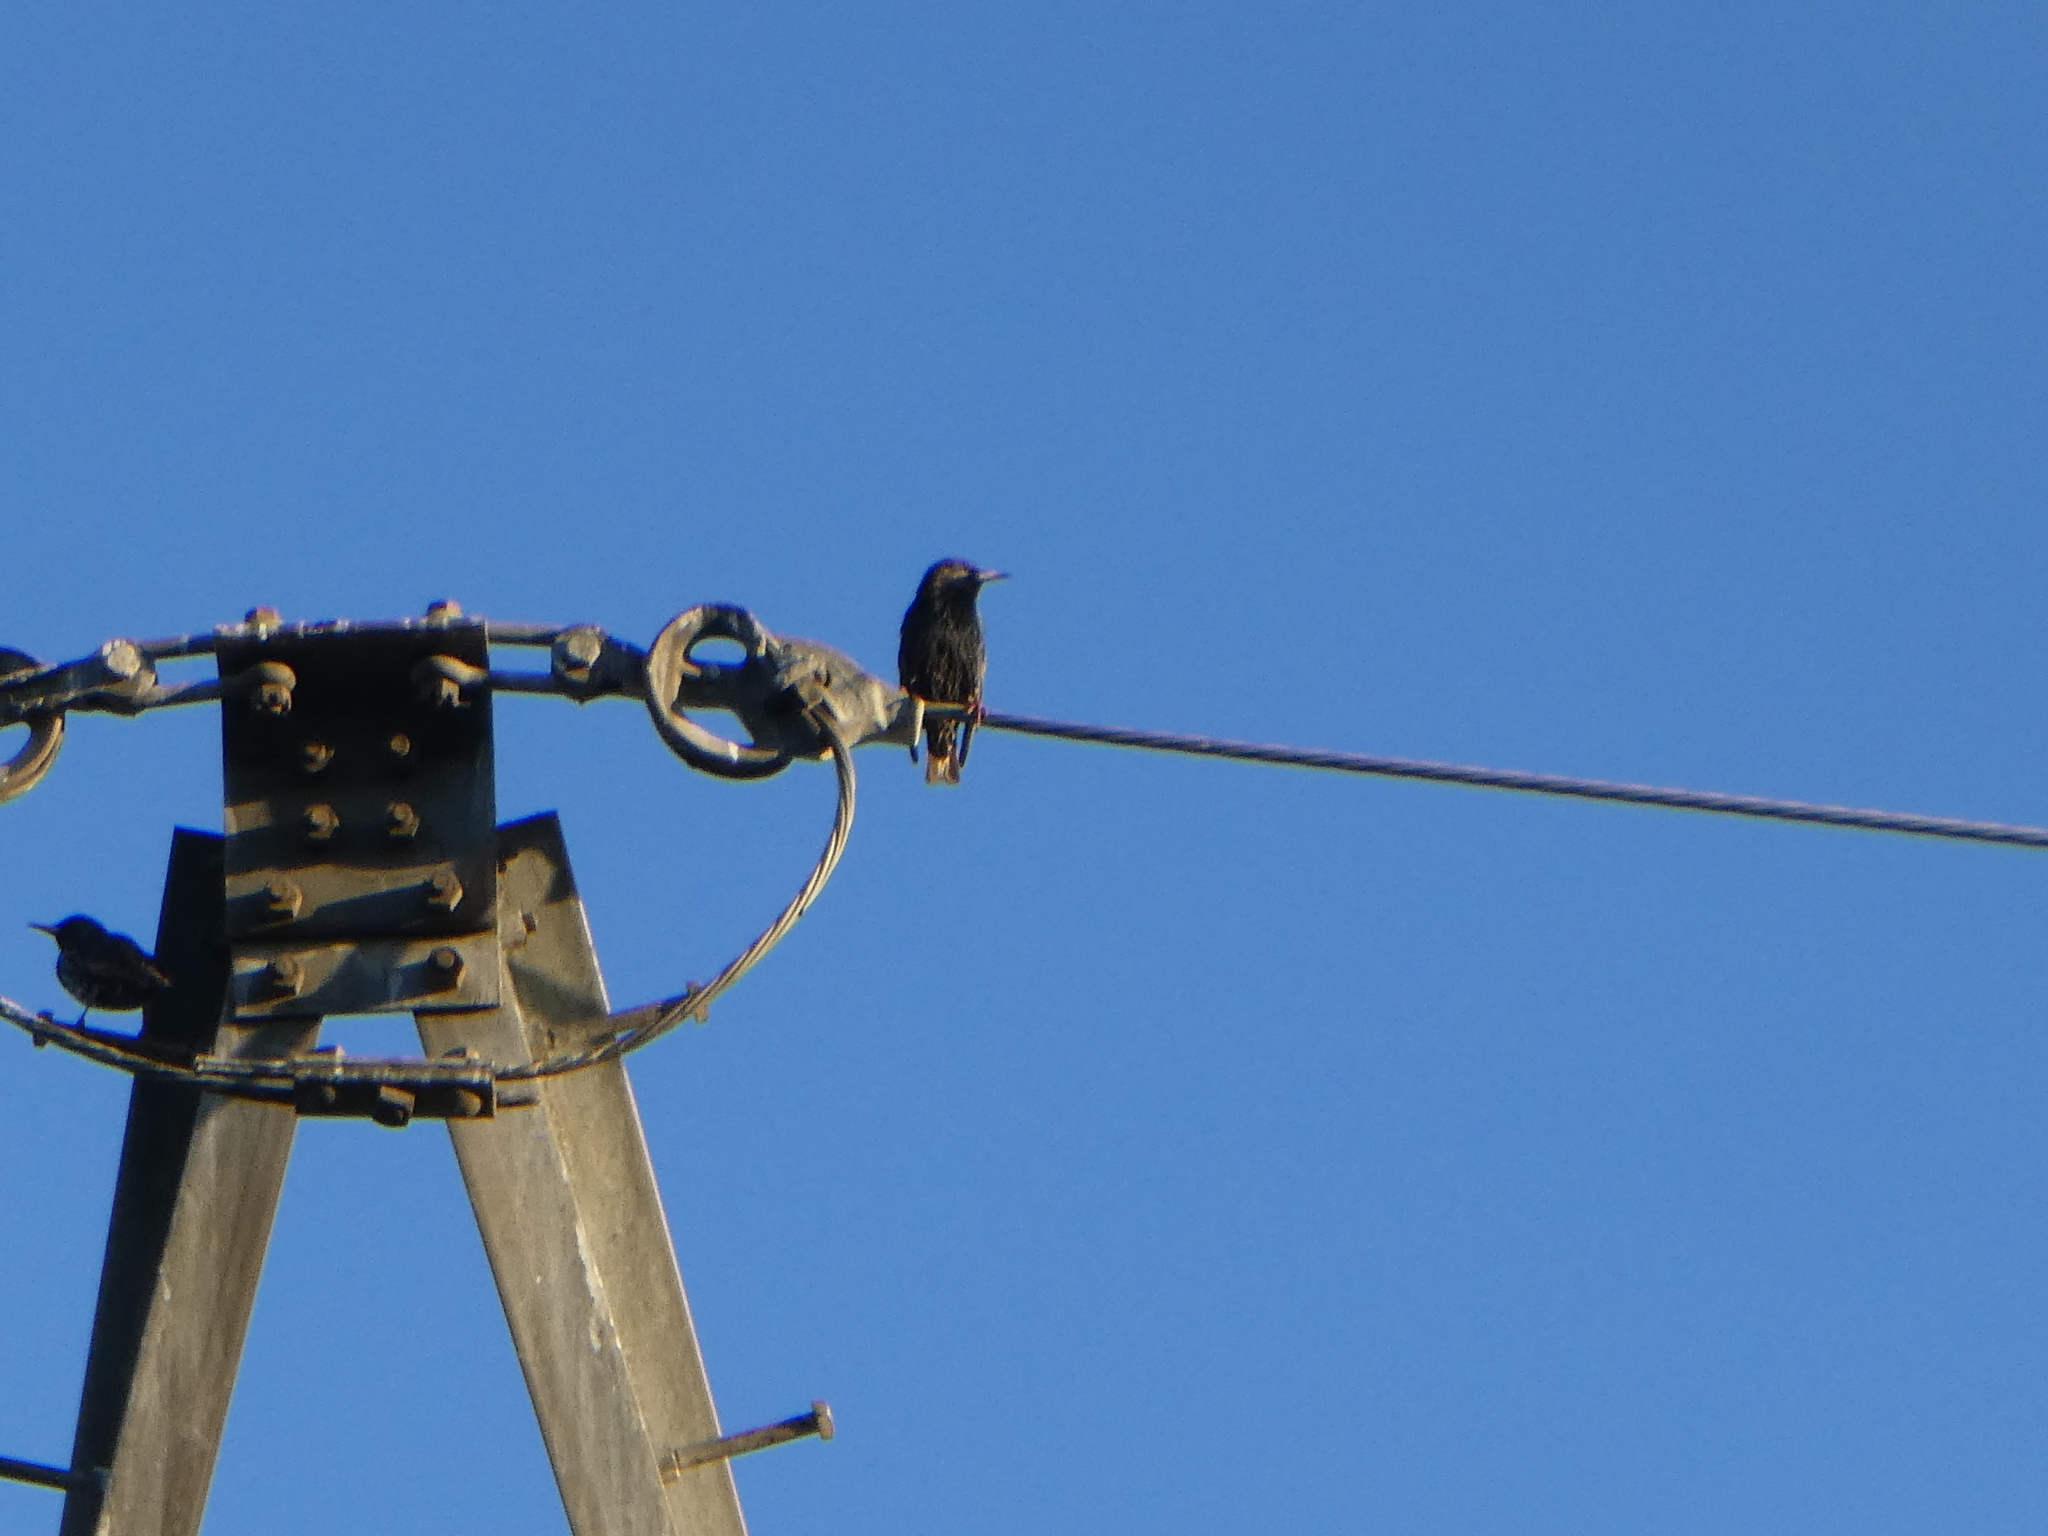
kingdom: Animalia
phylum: Chordata
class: Aves
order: Passeriformes
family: Sturnidae
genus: Sturnus
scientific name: Sturnus vulgaris
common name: Common starling
